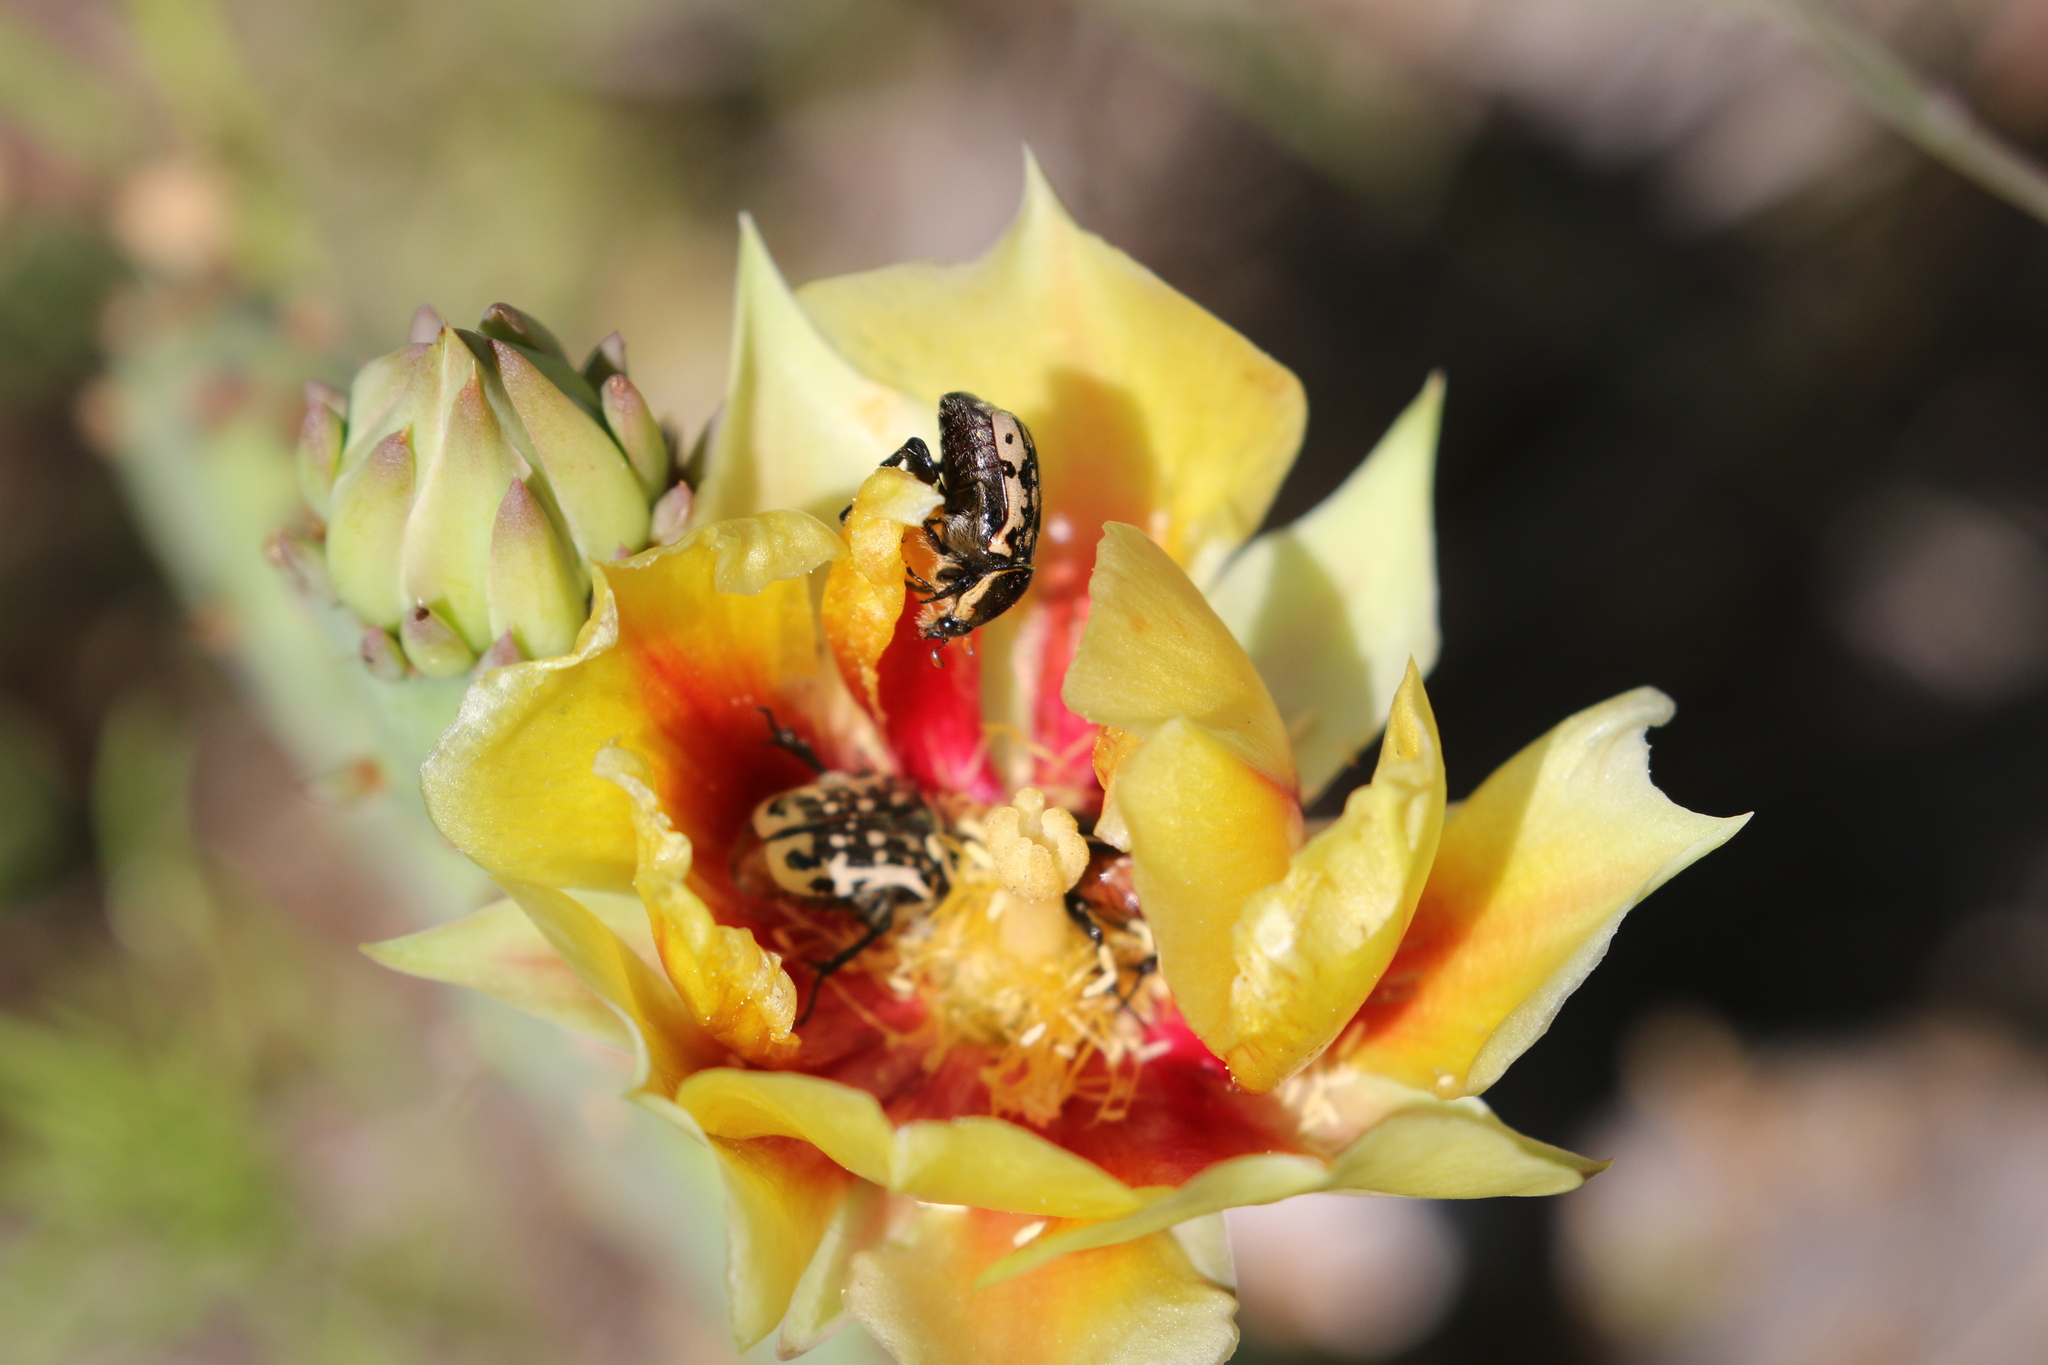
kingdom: Animalia
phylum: Arthropoda
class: Insecta
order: Coleoptera
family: Scarabaeidae
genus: Euphoria
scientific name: Euphoria kernii
